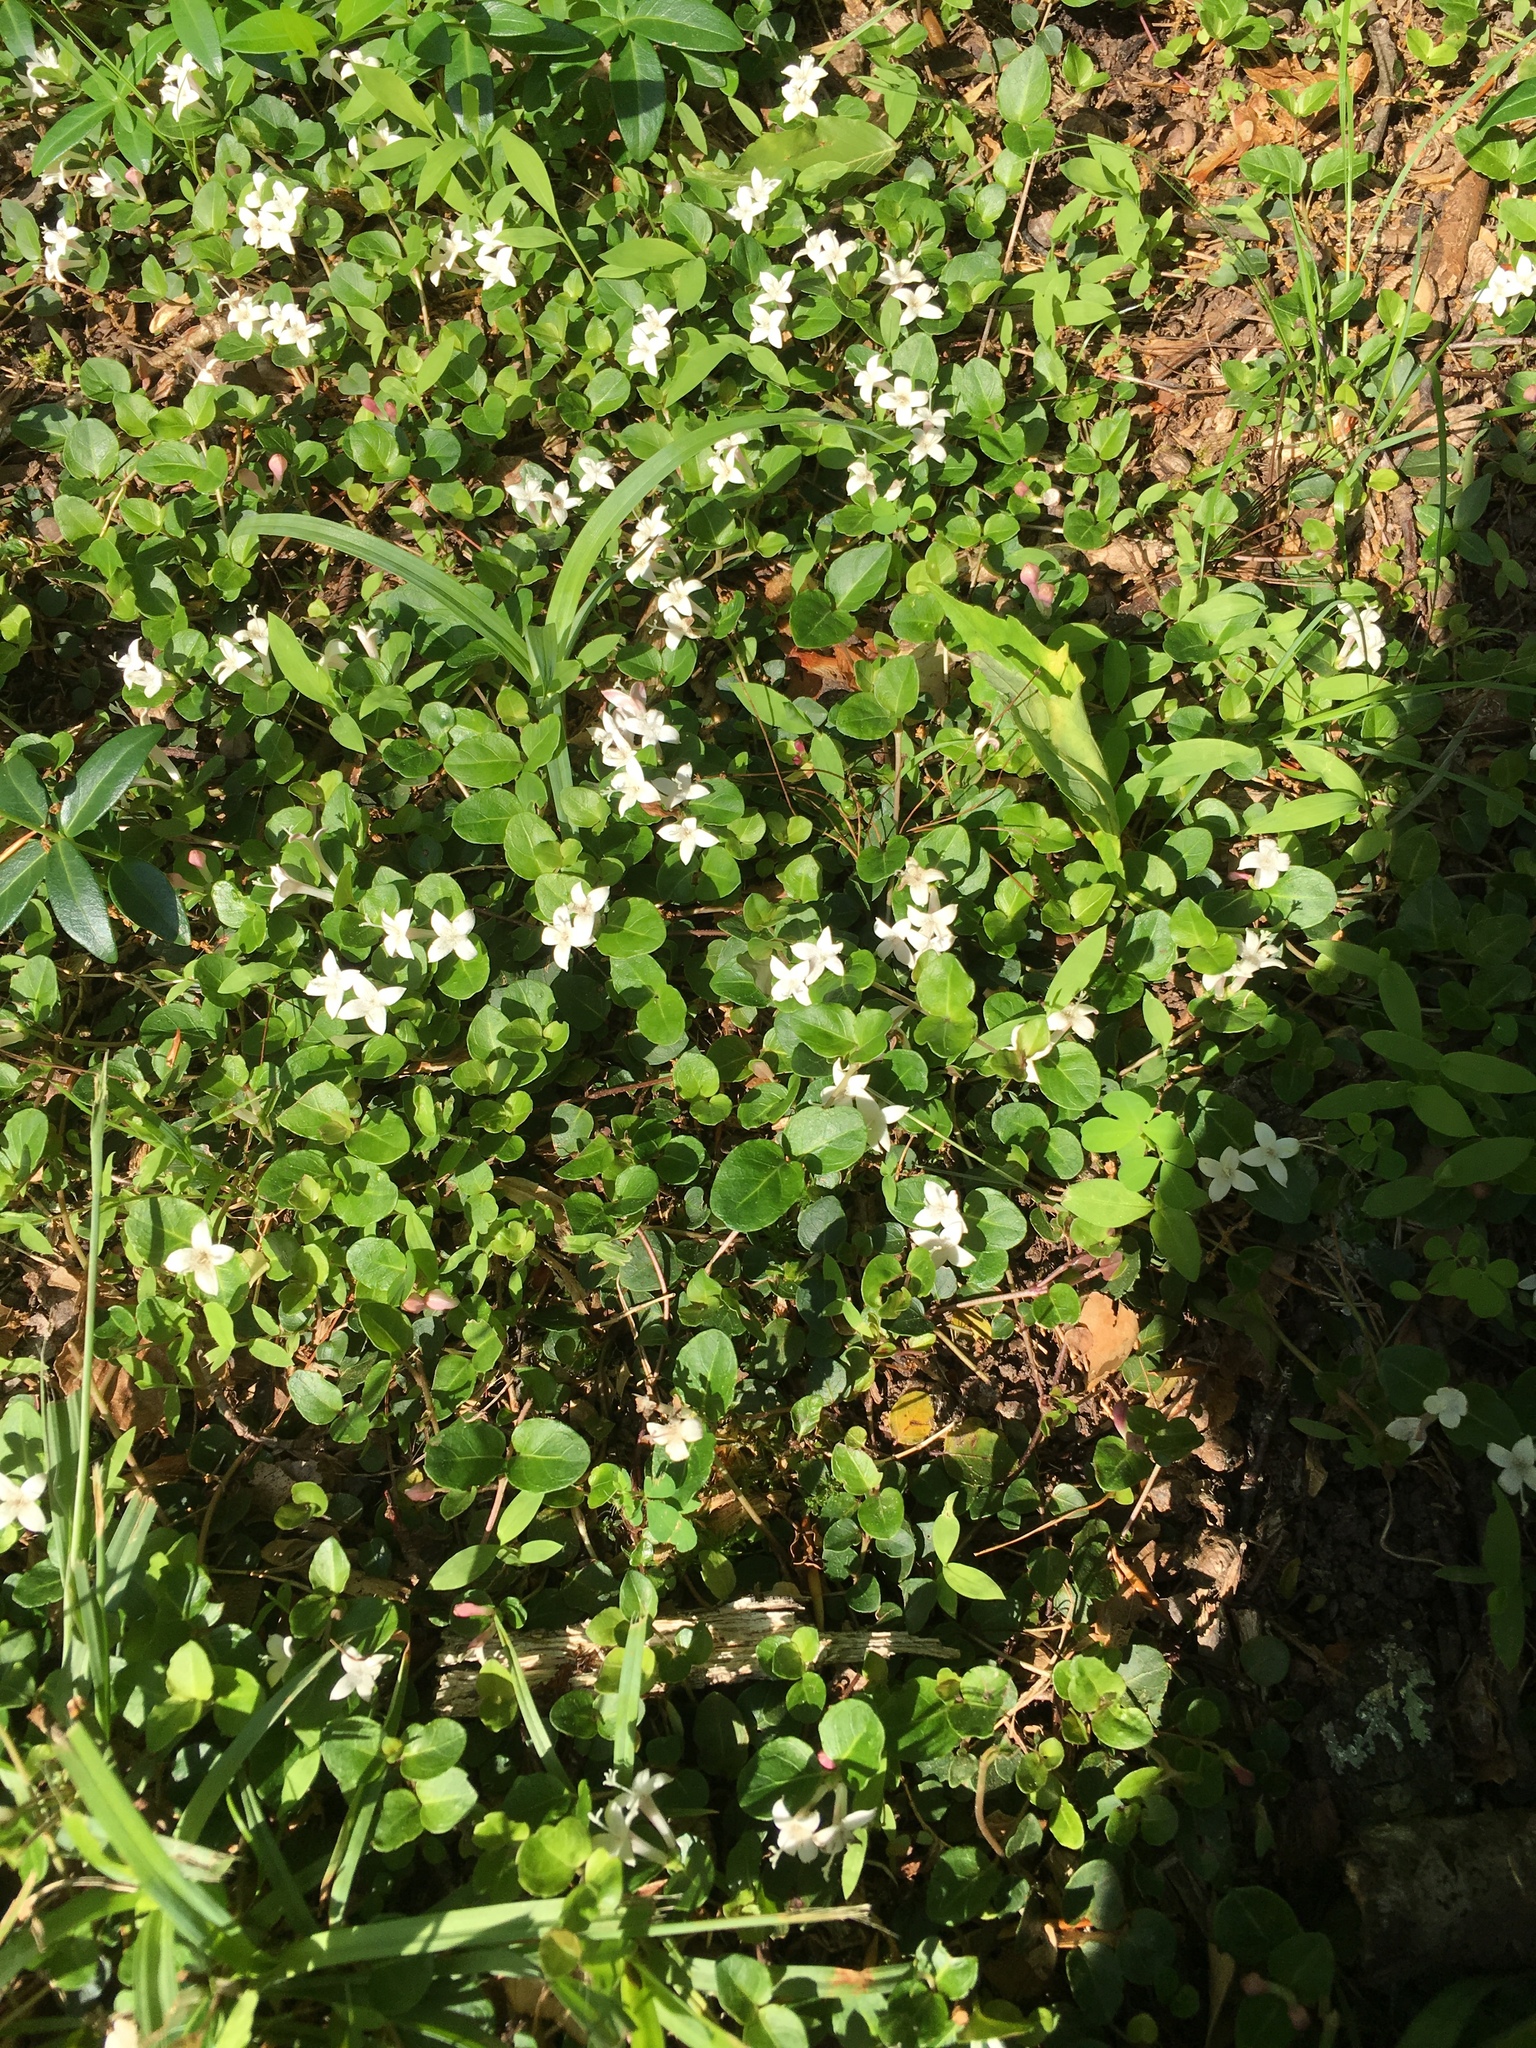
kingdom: Plantae
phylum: Tracheophyta
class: Magnoliopsida
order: Gentianales
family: Rubiaceae
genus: Mitchella
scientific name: Mitchella repens
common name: Partridge-berry
